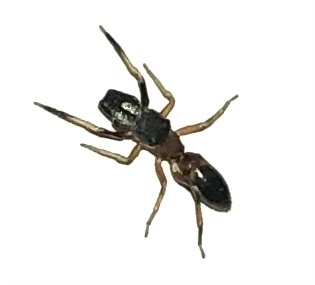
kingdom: Animalia
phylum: Arthropoda
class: Arachnida
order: Araneae
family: Salticidae
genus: Myrmarachne
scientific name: Myrmarachne formicaria
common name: Ant mimic jumping spider
